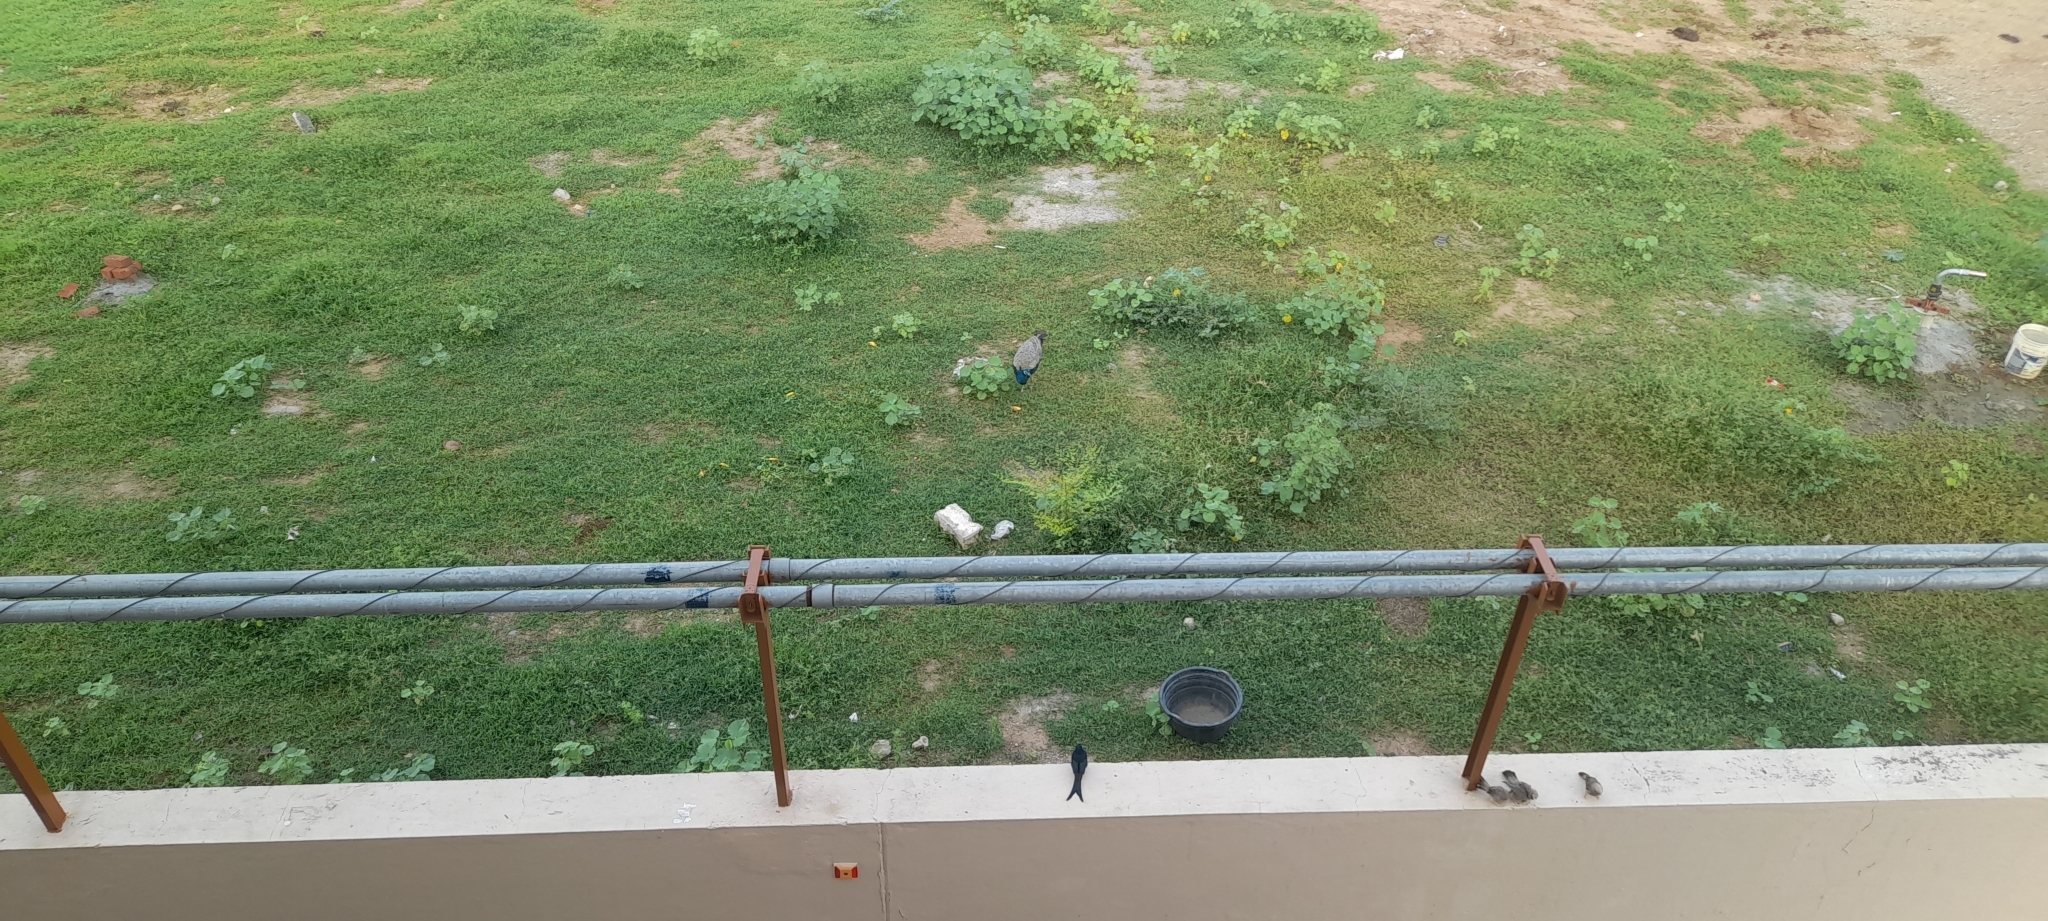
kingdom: Animalia
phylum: Chordata
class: Aves
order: Passeriformes
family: Leiothrichidae
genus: Turdoides
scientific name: Turdoides affinis
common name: Yellow-billed babbler
